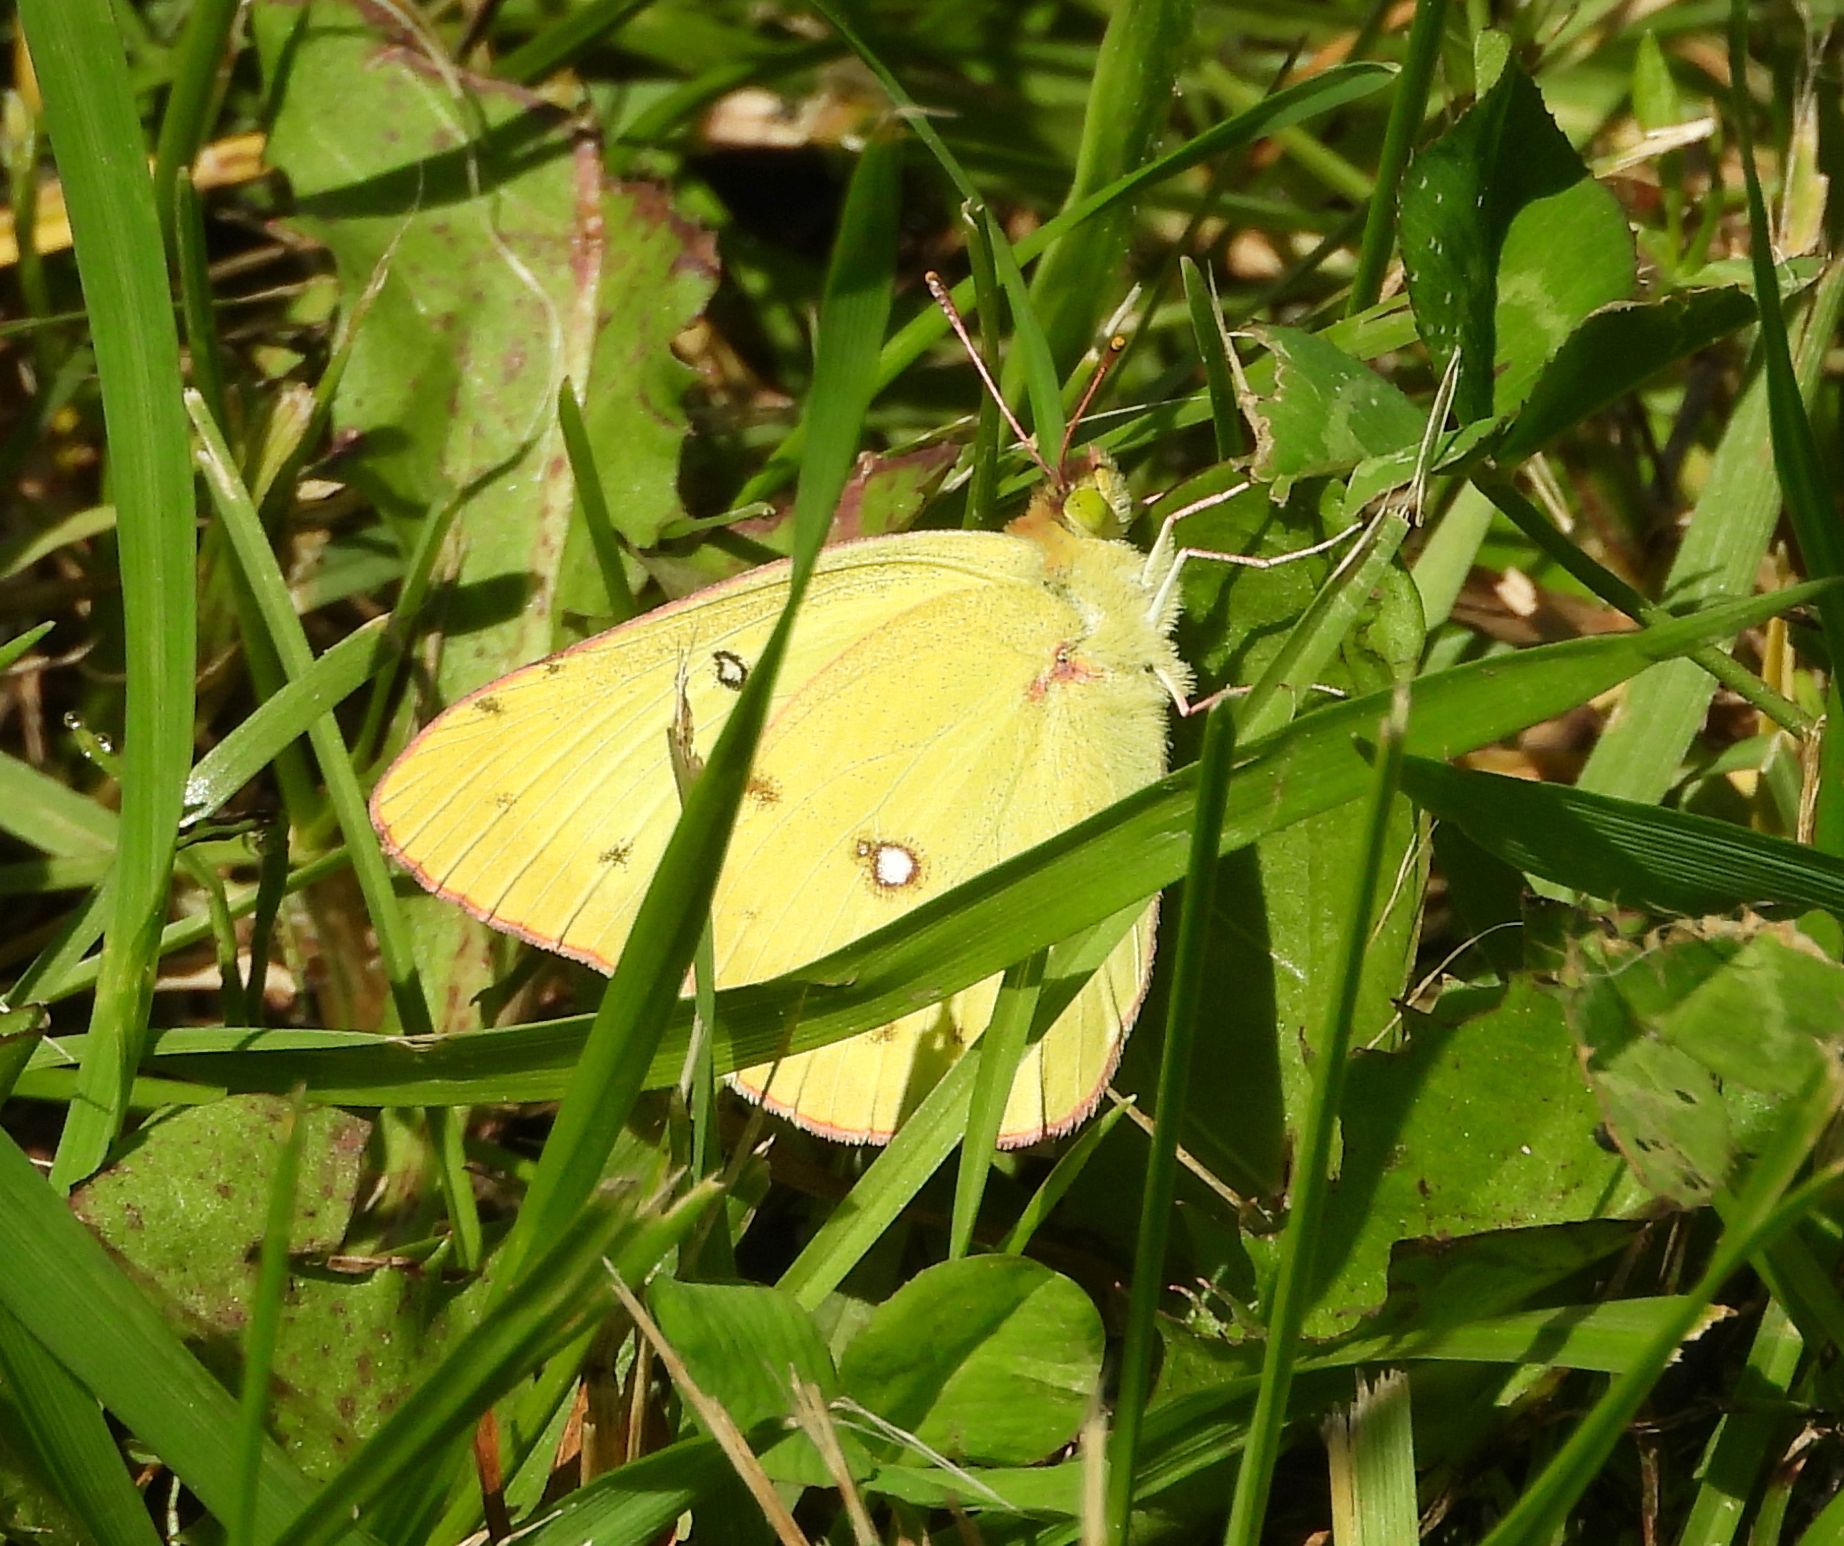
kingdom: Animalia
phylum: Arthropoda
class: Insecta
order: Lepidoptera
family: Pieridae
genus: Colias
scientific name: Colias philodice
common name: Clouded sulphur
